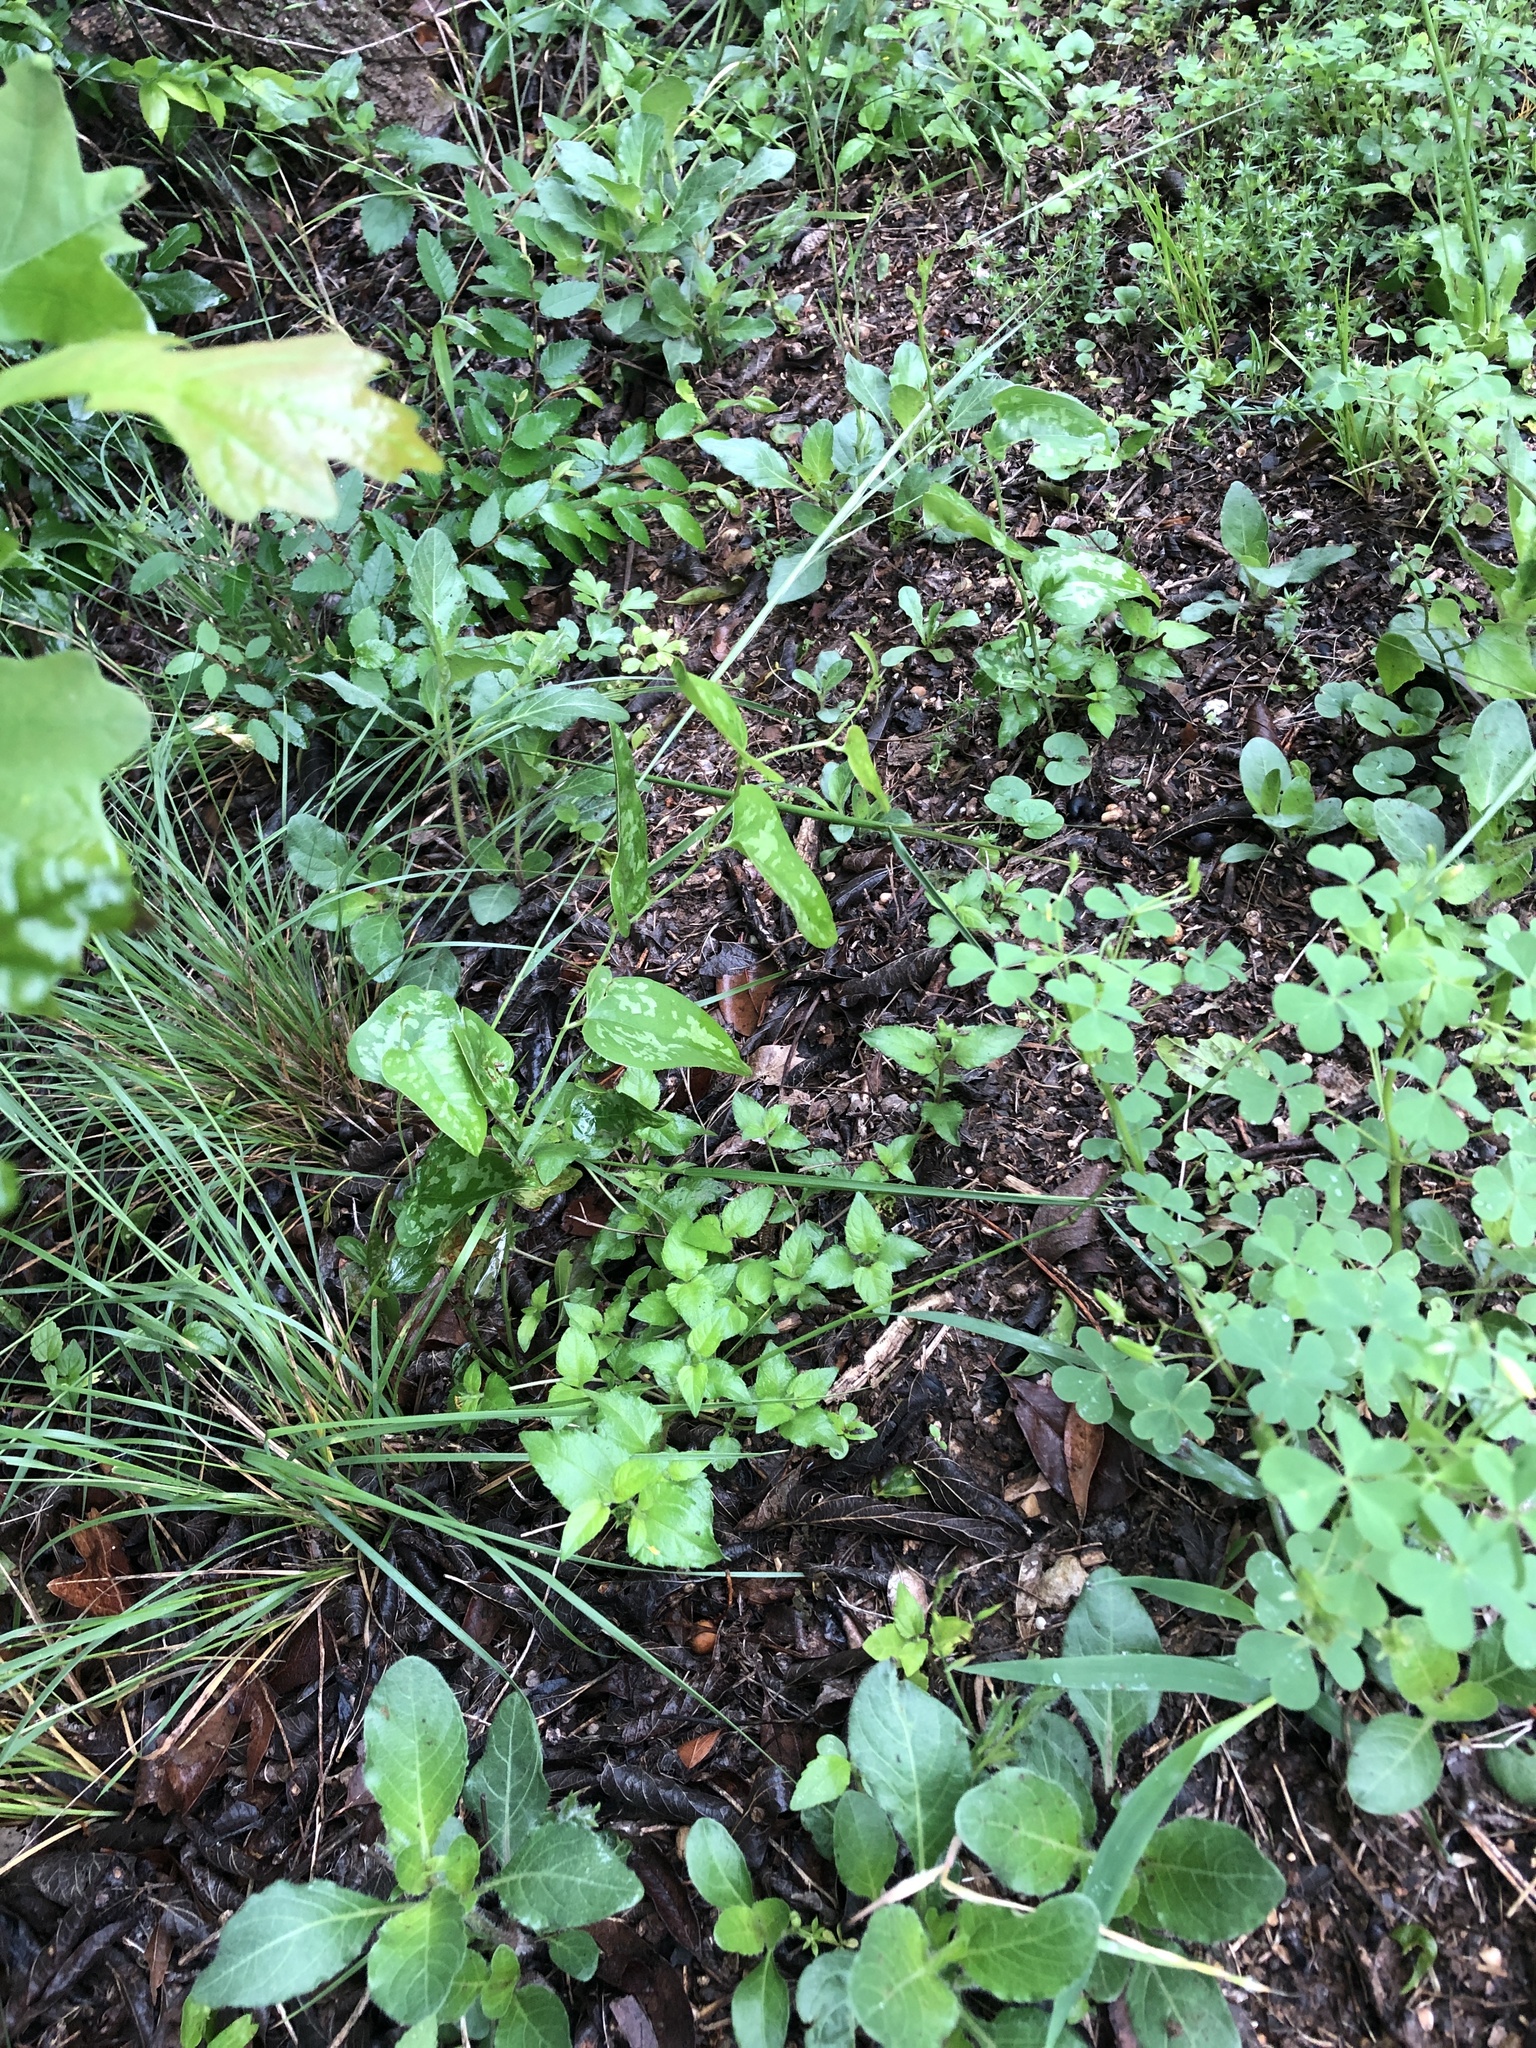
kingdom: Plantae
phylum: Tracheophyta
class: Liliopsida
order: Poales
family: Poaceae
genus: Nassella
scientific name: Nassella leucotricha
